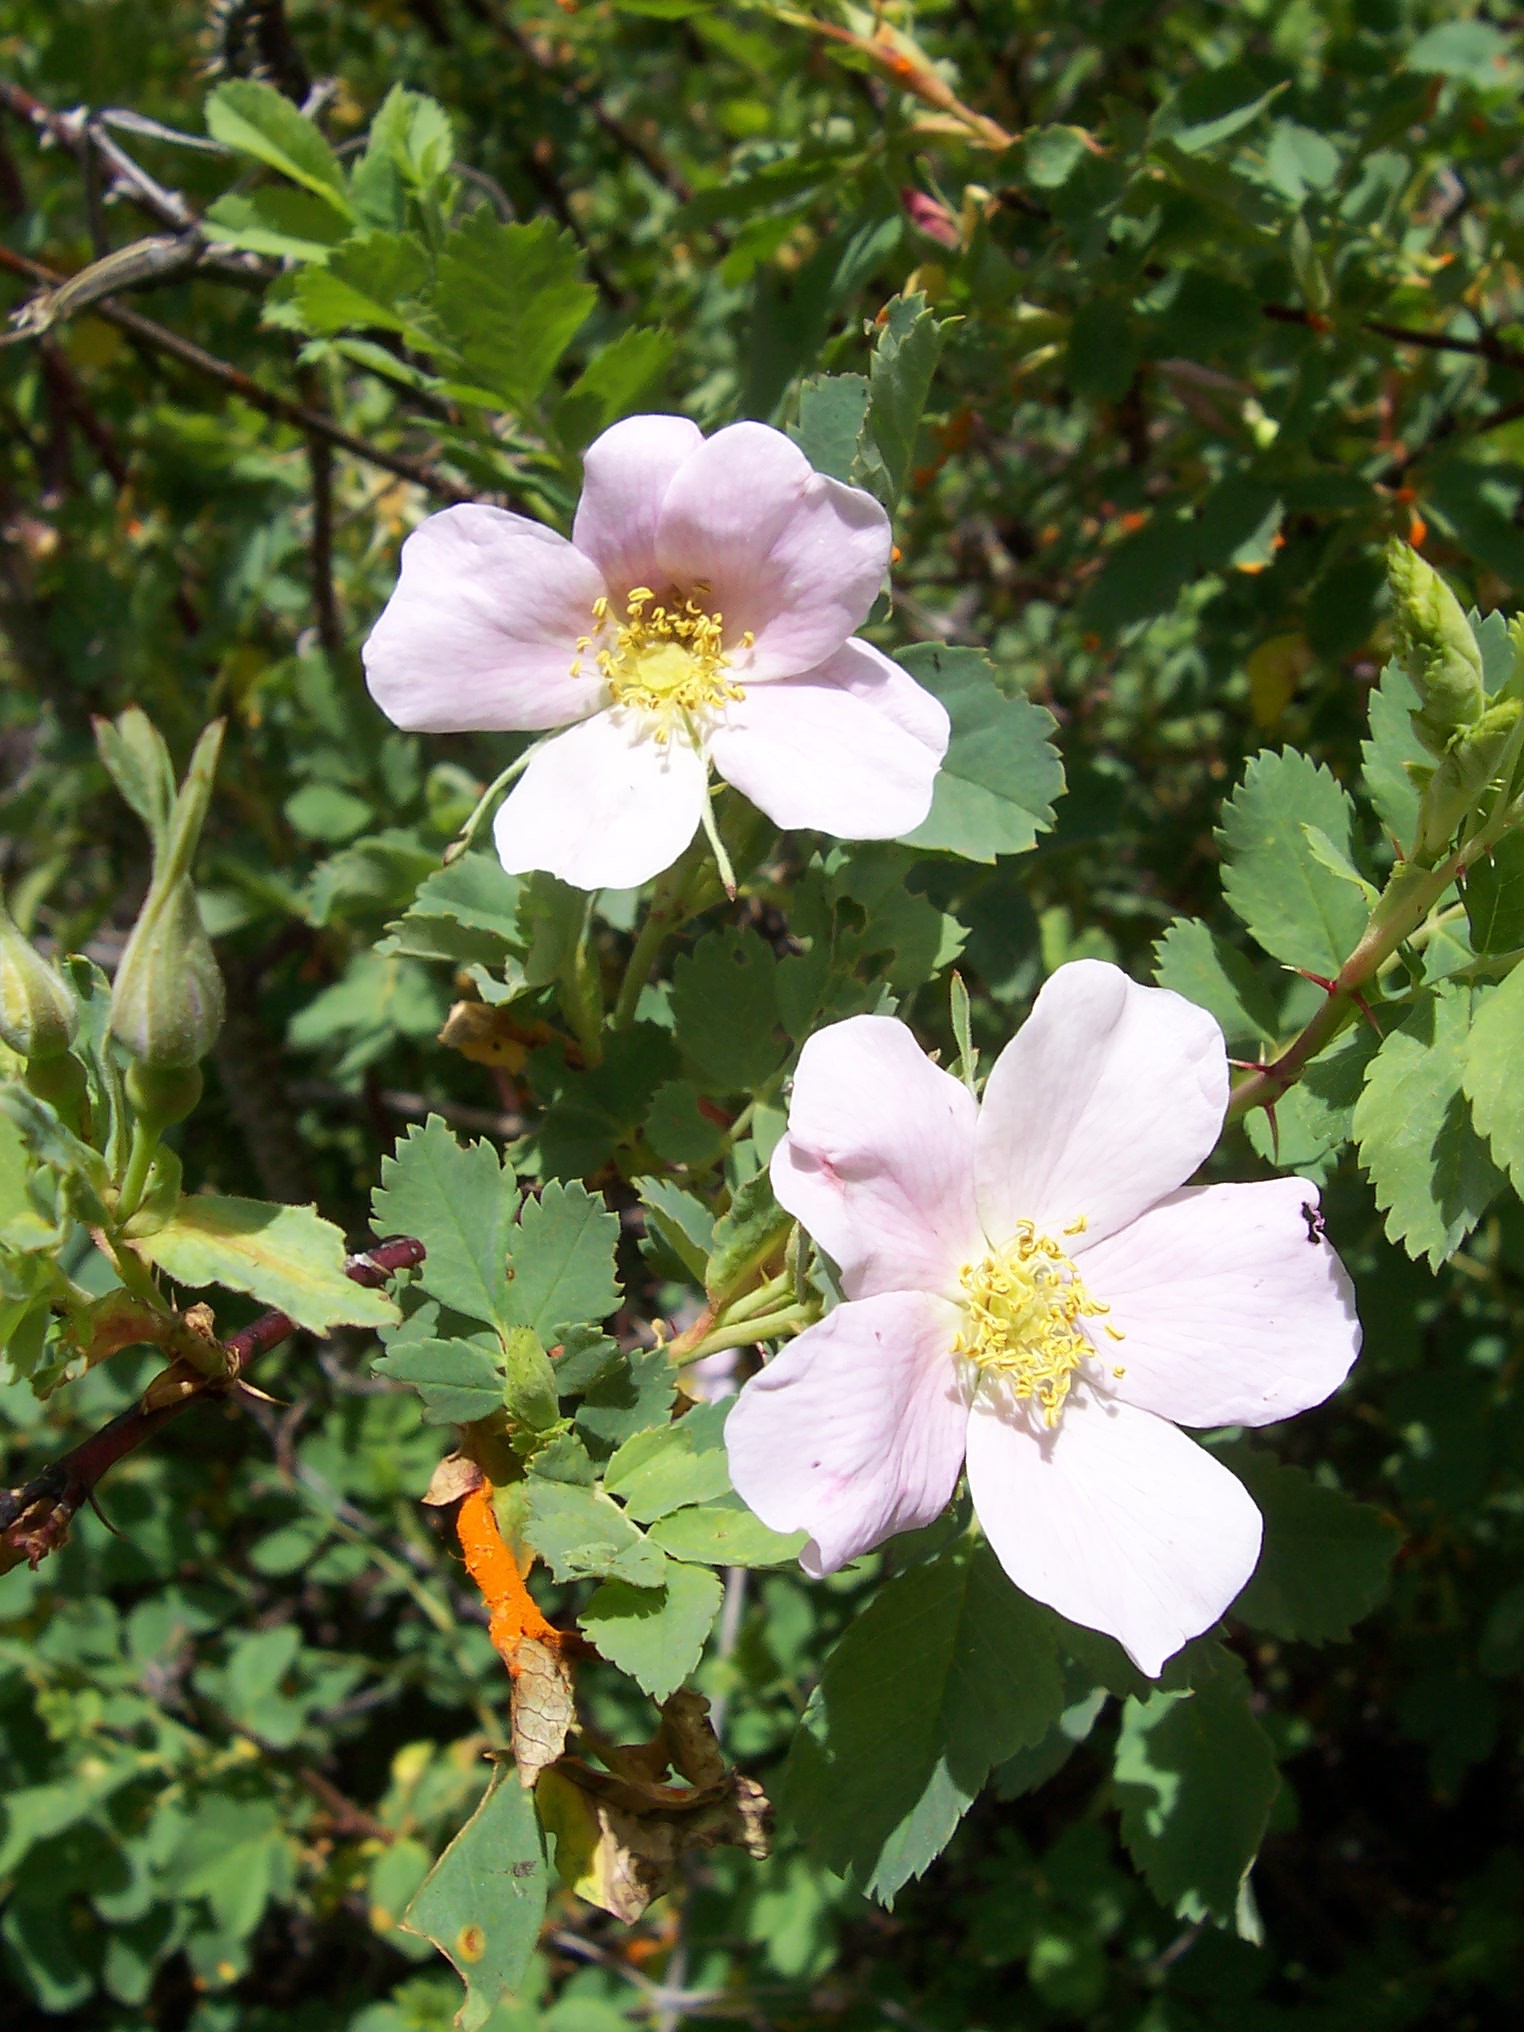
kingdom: Plantae
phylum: Tracheophyta
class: Magnoliopsida
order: Rosales
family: Rosaceae
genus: Rosa
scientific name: Rosa woodsii
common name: Woods's rose
